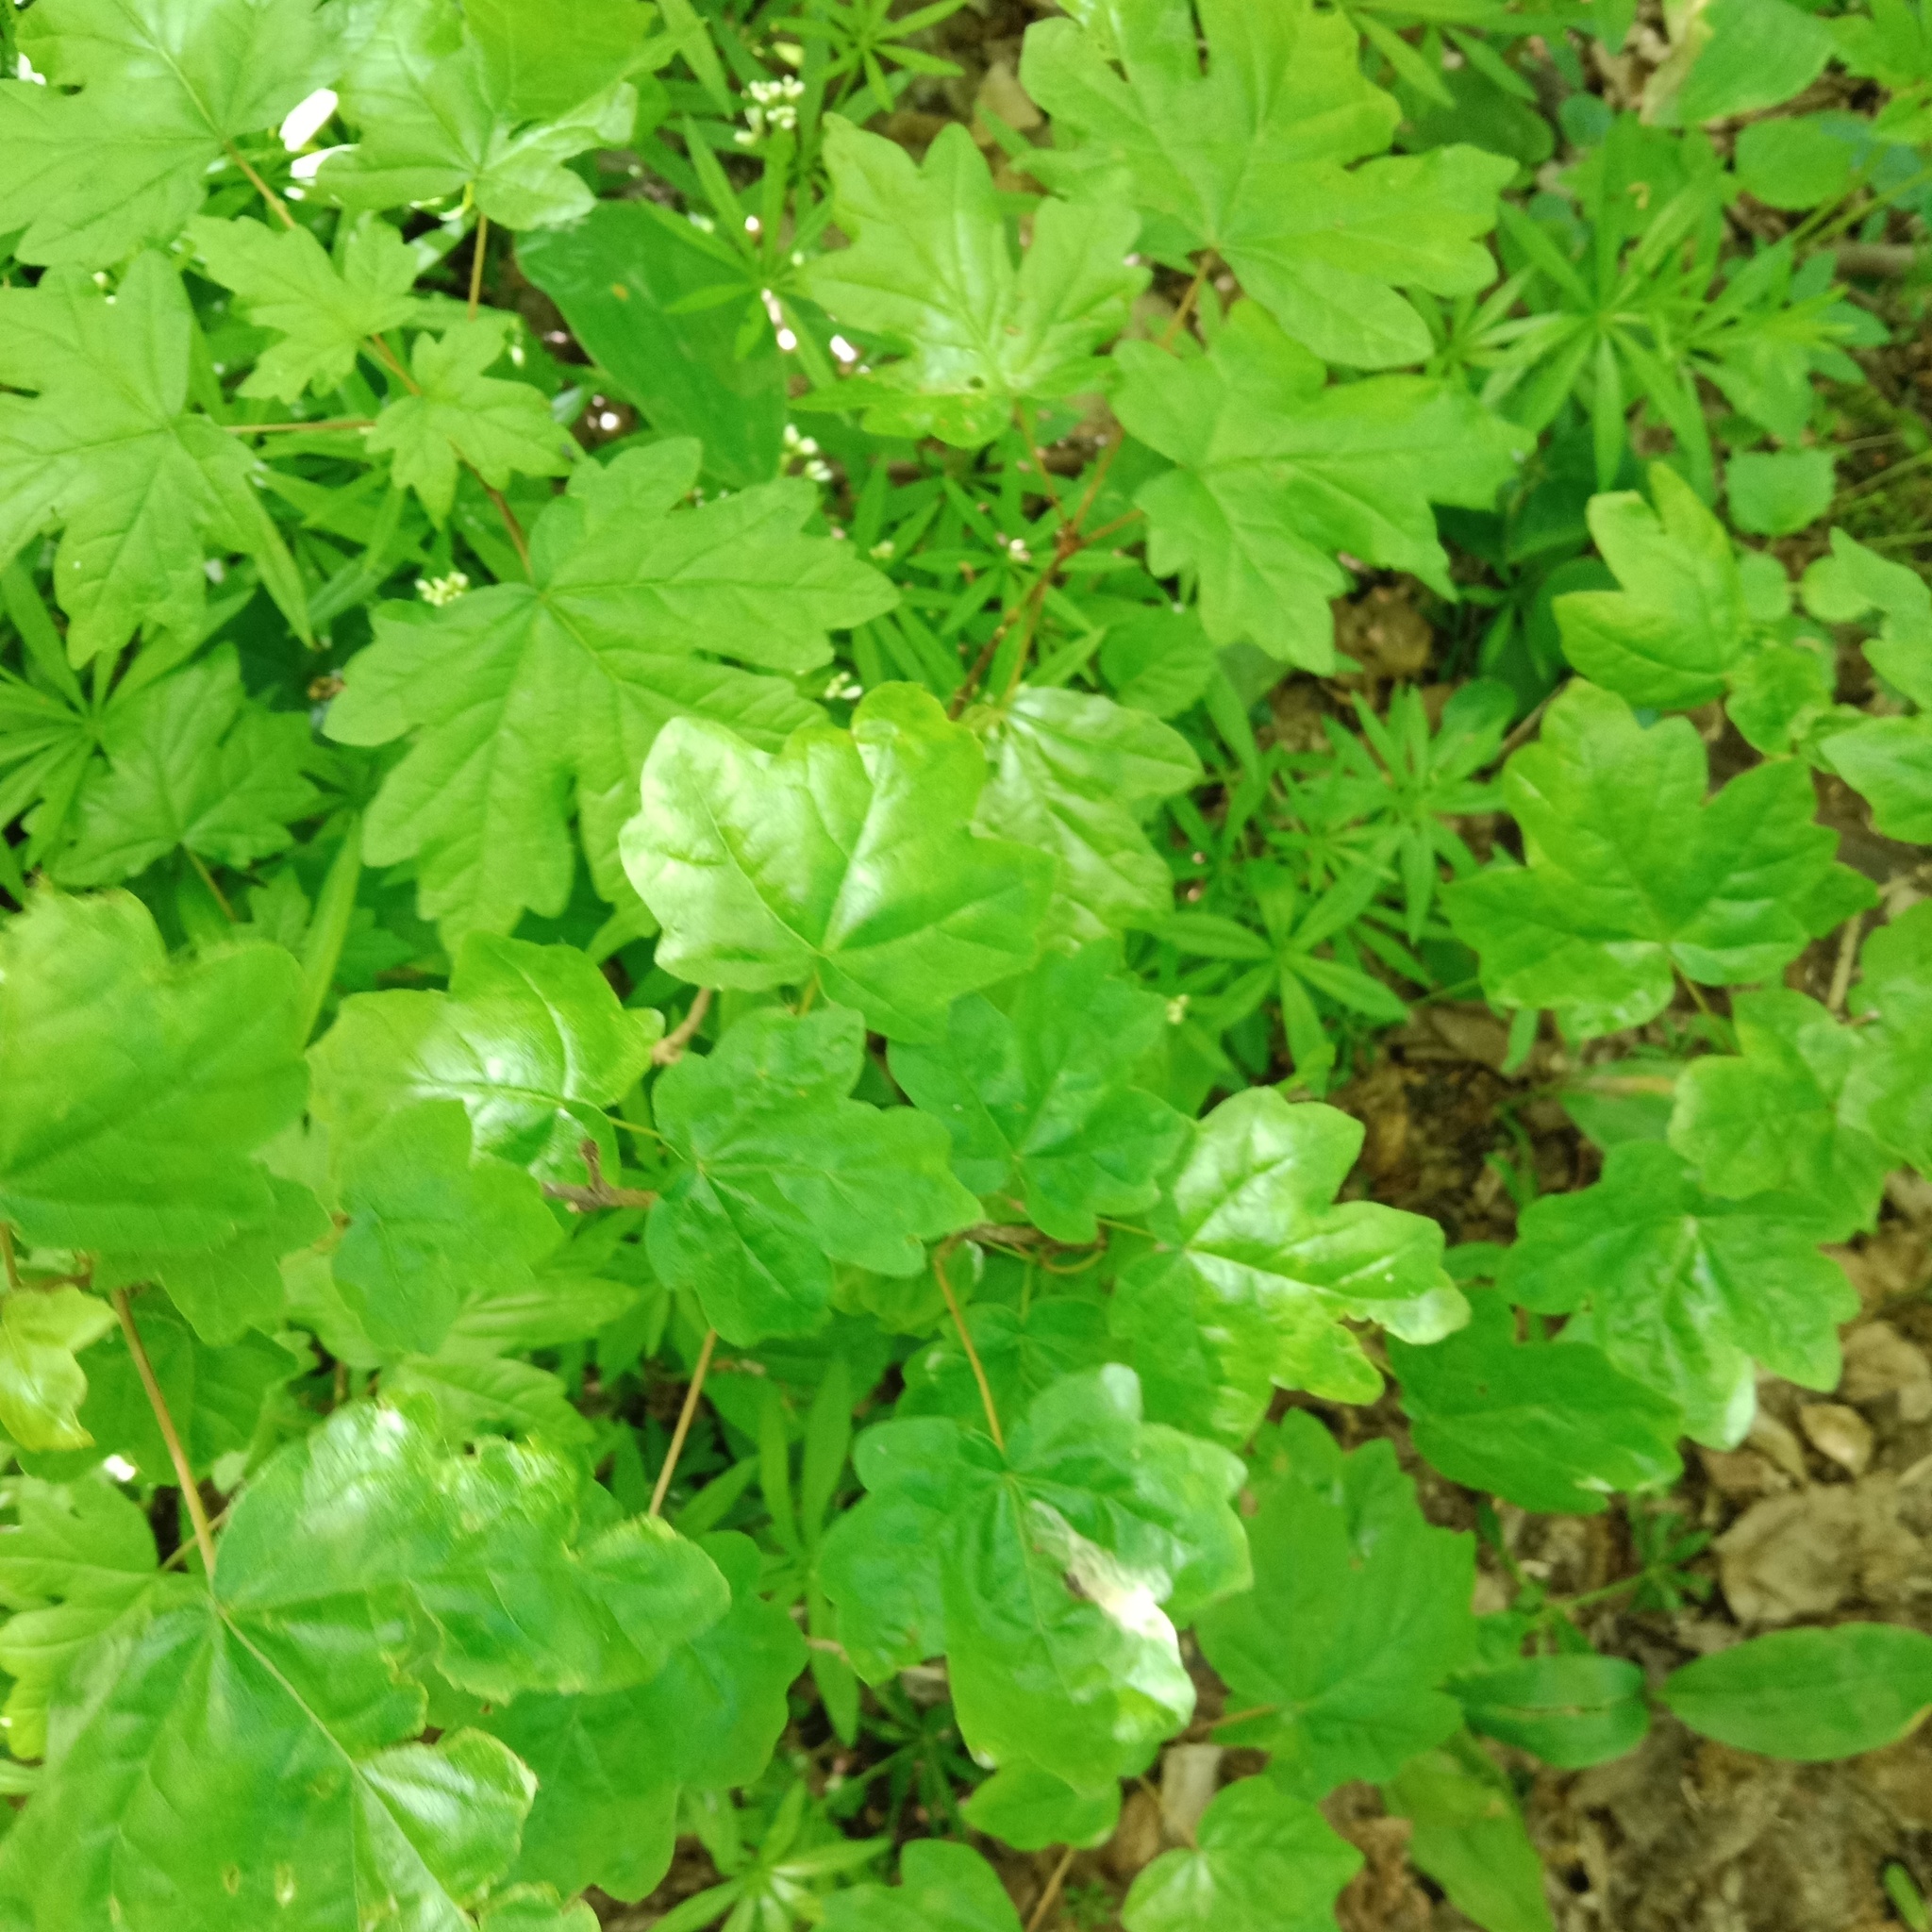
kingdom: Plantae
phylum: Tracheophyta
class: Magnoliopsida
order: Sapindales
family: Sapindaceae
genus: Acer
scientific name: Acer campestre
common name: Field maple
